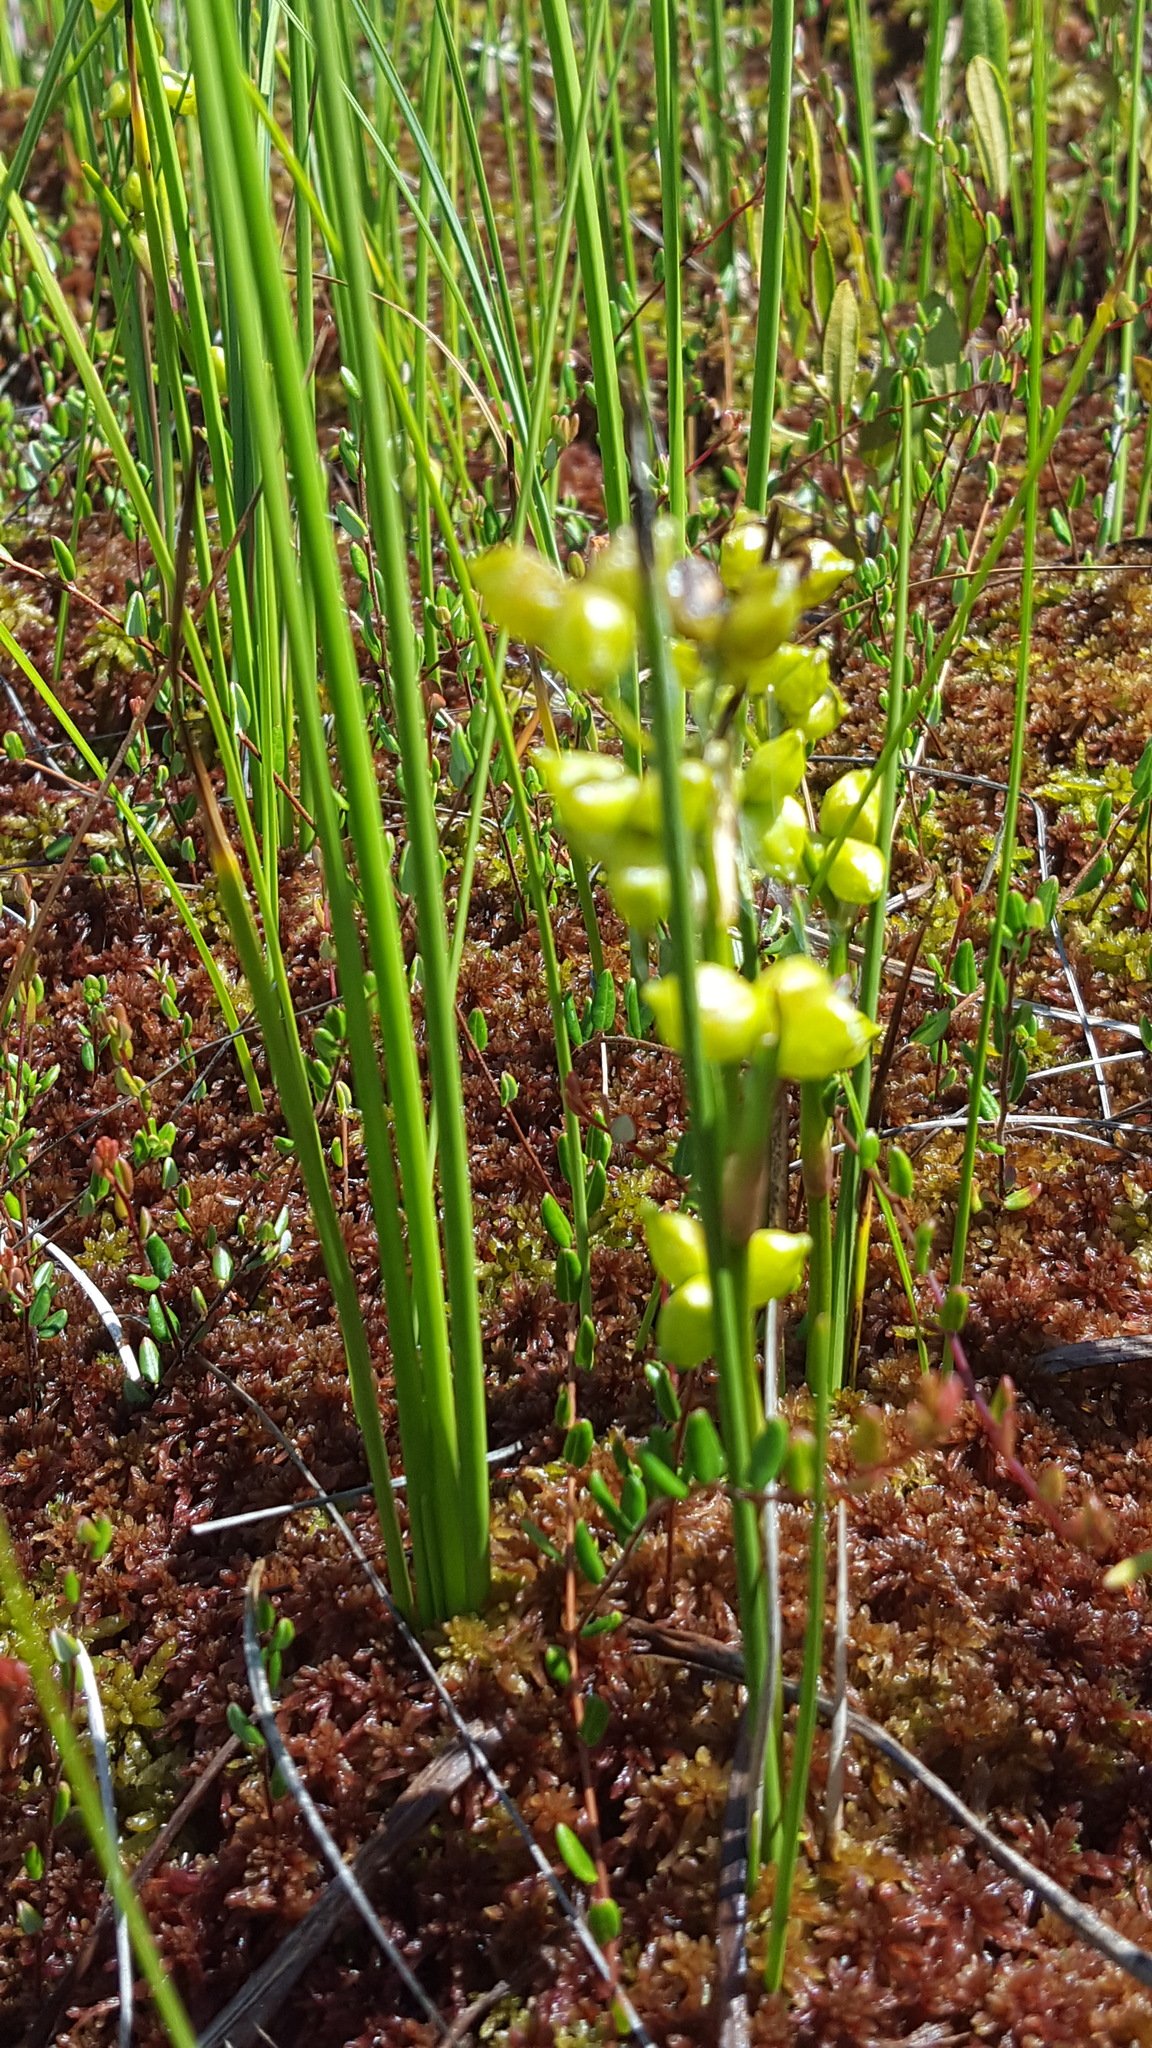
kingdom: Plantae
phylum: Tracheophyta
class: Liliopsida
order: Alismatales
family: Scheuchzeriaceae
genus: Scheuchzeria
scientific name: Scheuchzeria palustris
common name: Rannoch-rush
